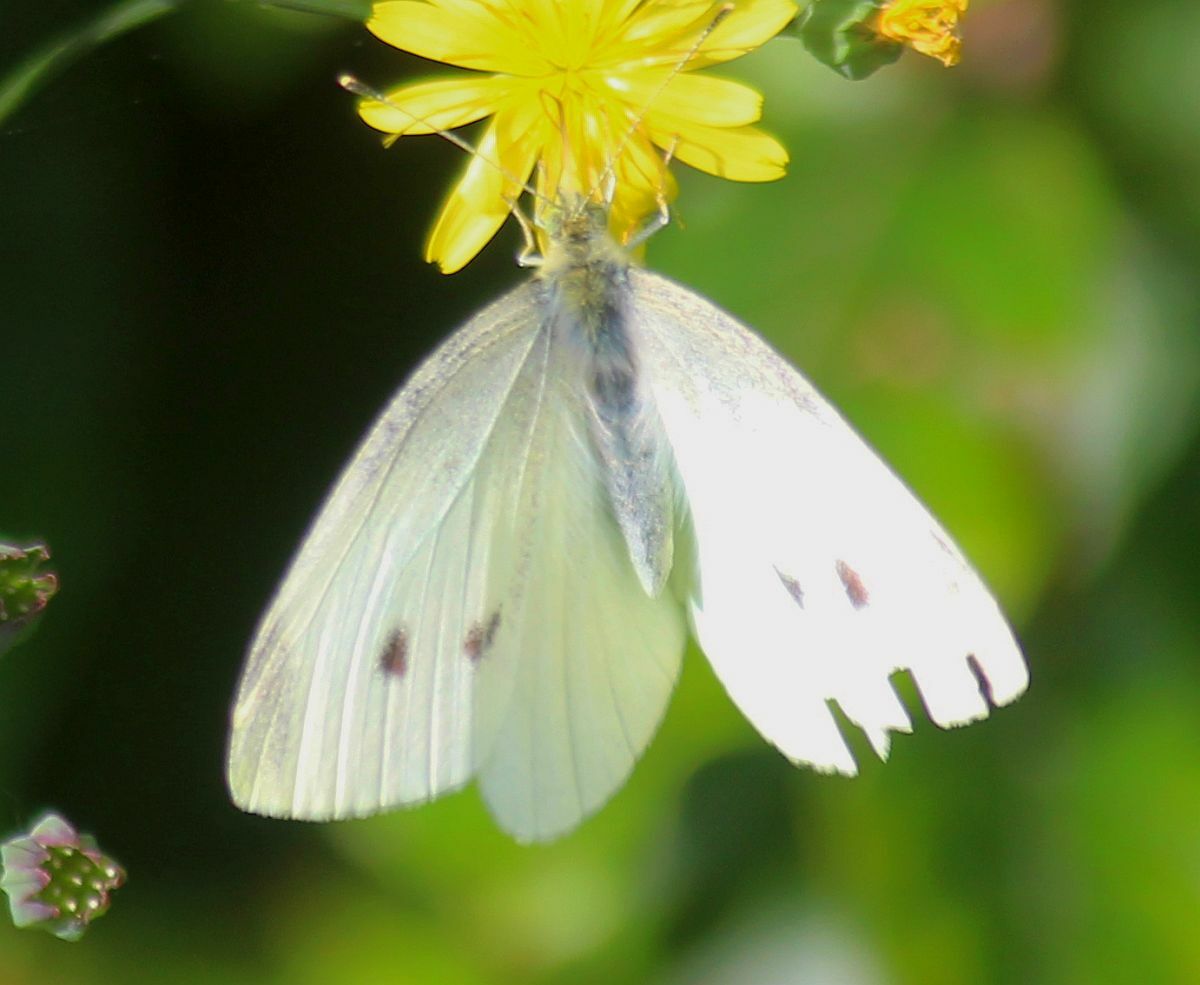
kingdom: Animalia
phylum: Arthropoda
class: Insecta
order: Lepidoptera
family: Pieridae
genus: Pieris
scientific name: Pieris rapae
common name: Small white
